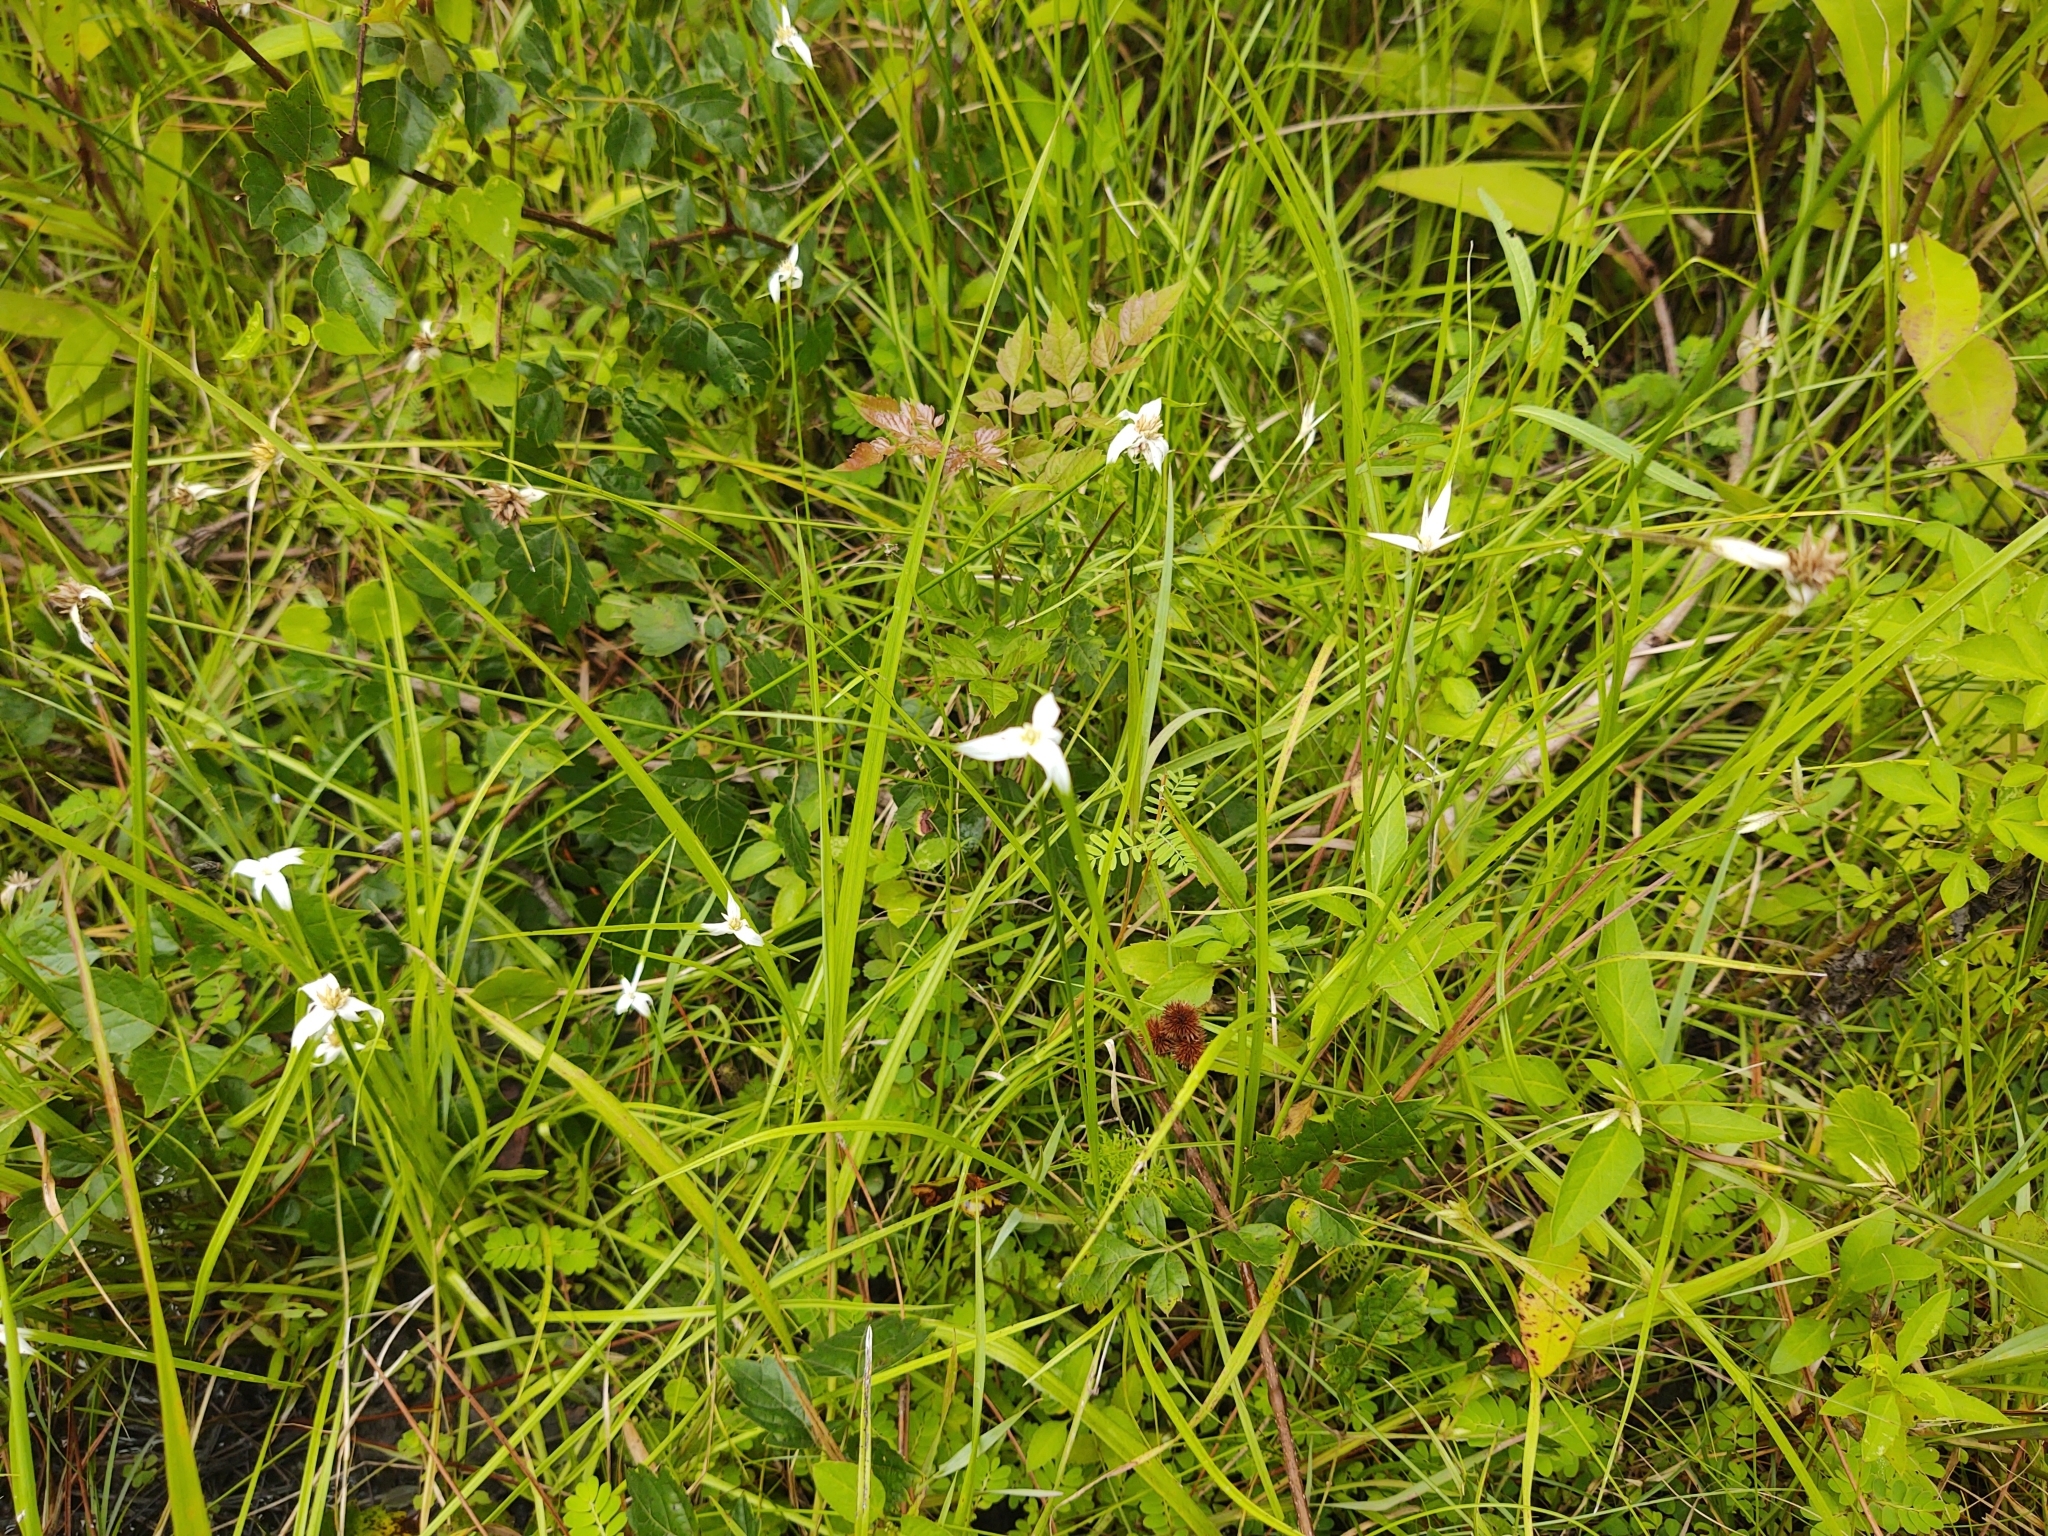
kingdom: Plantae
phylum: Tracheophyta
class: Liliopsida
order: Poales
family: Cyperaceae
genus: Rhynchospora
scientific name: Rhynchospora colorata
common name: Star sedge
